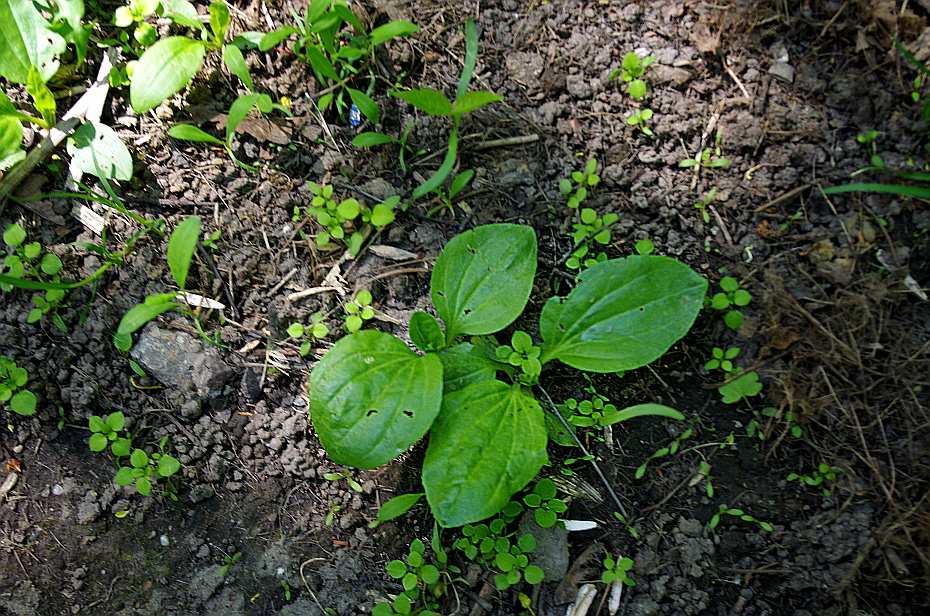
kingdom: Plantae
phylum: Tracheophyta
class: Magnoliopsida
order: Lamiales
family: Plantaginaceae
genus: Plantago
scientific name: Plantago major
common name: Common plantain
